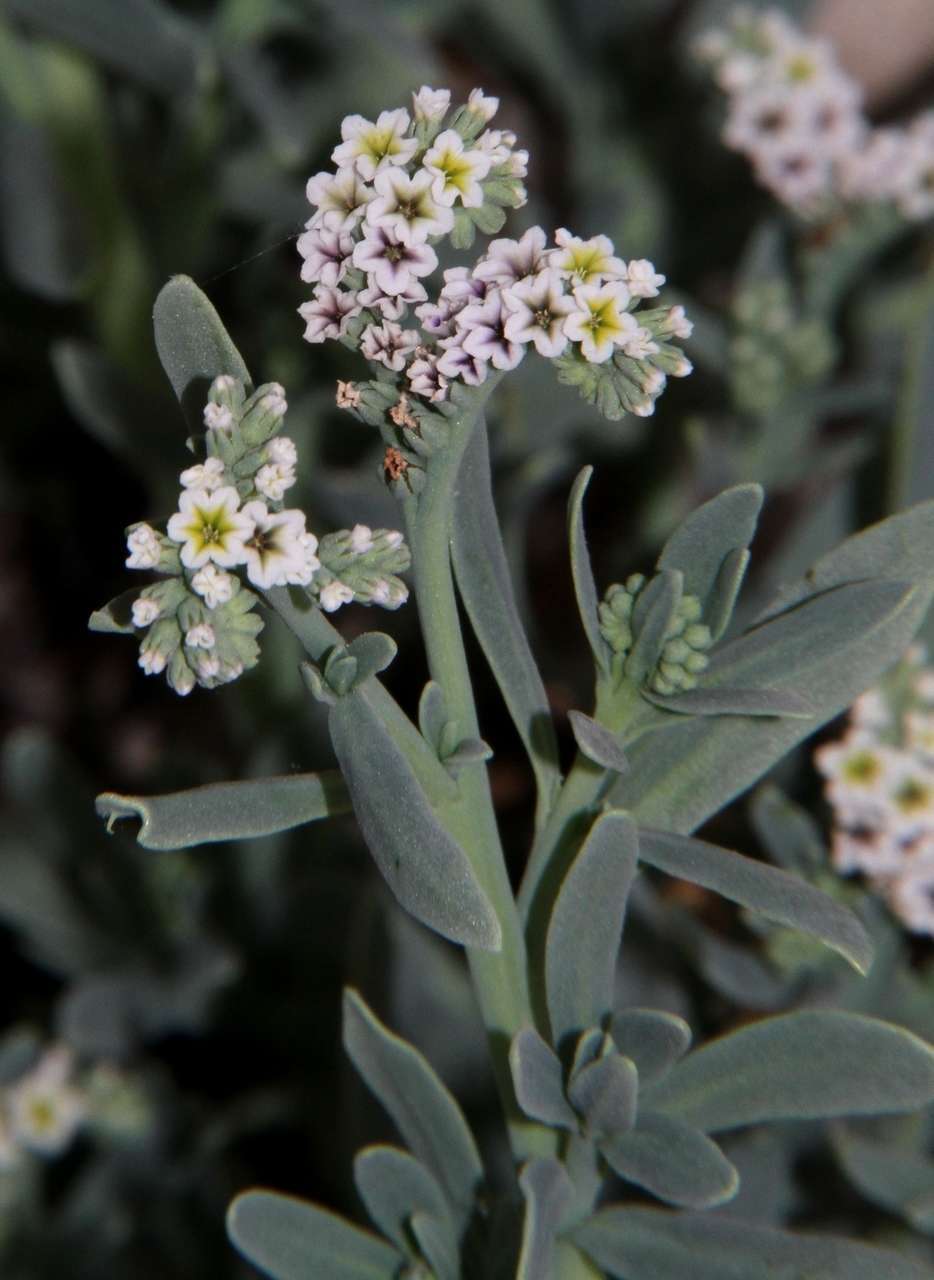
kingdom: Plantae
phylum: Tracheophyta
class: Magnoliopsida
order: Boraginales
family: Heliotropiaceae
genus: Heliotropium
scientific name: Heliotropium curassavicum
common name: Seaside heliotrope
